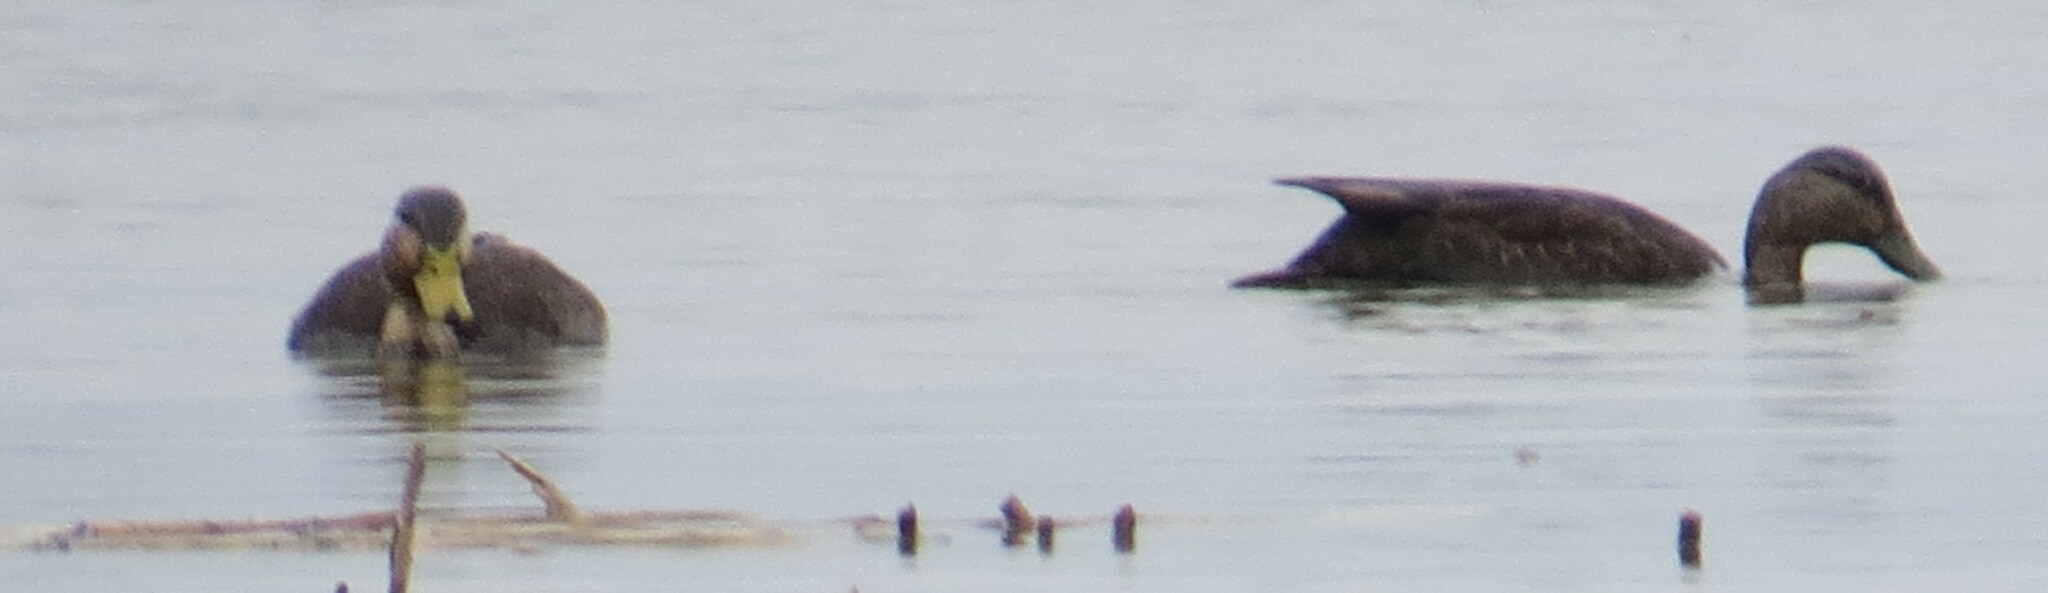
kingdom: Animalia
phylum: Chordata
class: Aves
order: Anseriformes
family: Anatidae
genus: Anas
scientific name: Anas rubripes
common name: American black duck
